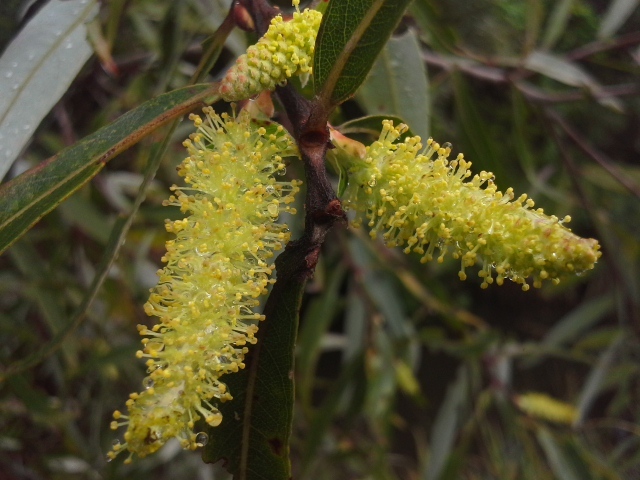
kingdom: Plantae
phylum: Tracheophyta
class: Magnoliopsida
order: Malpighiales
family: Salicaceae
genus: Salix
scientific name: Salix mucronata
